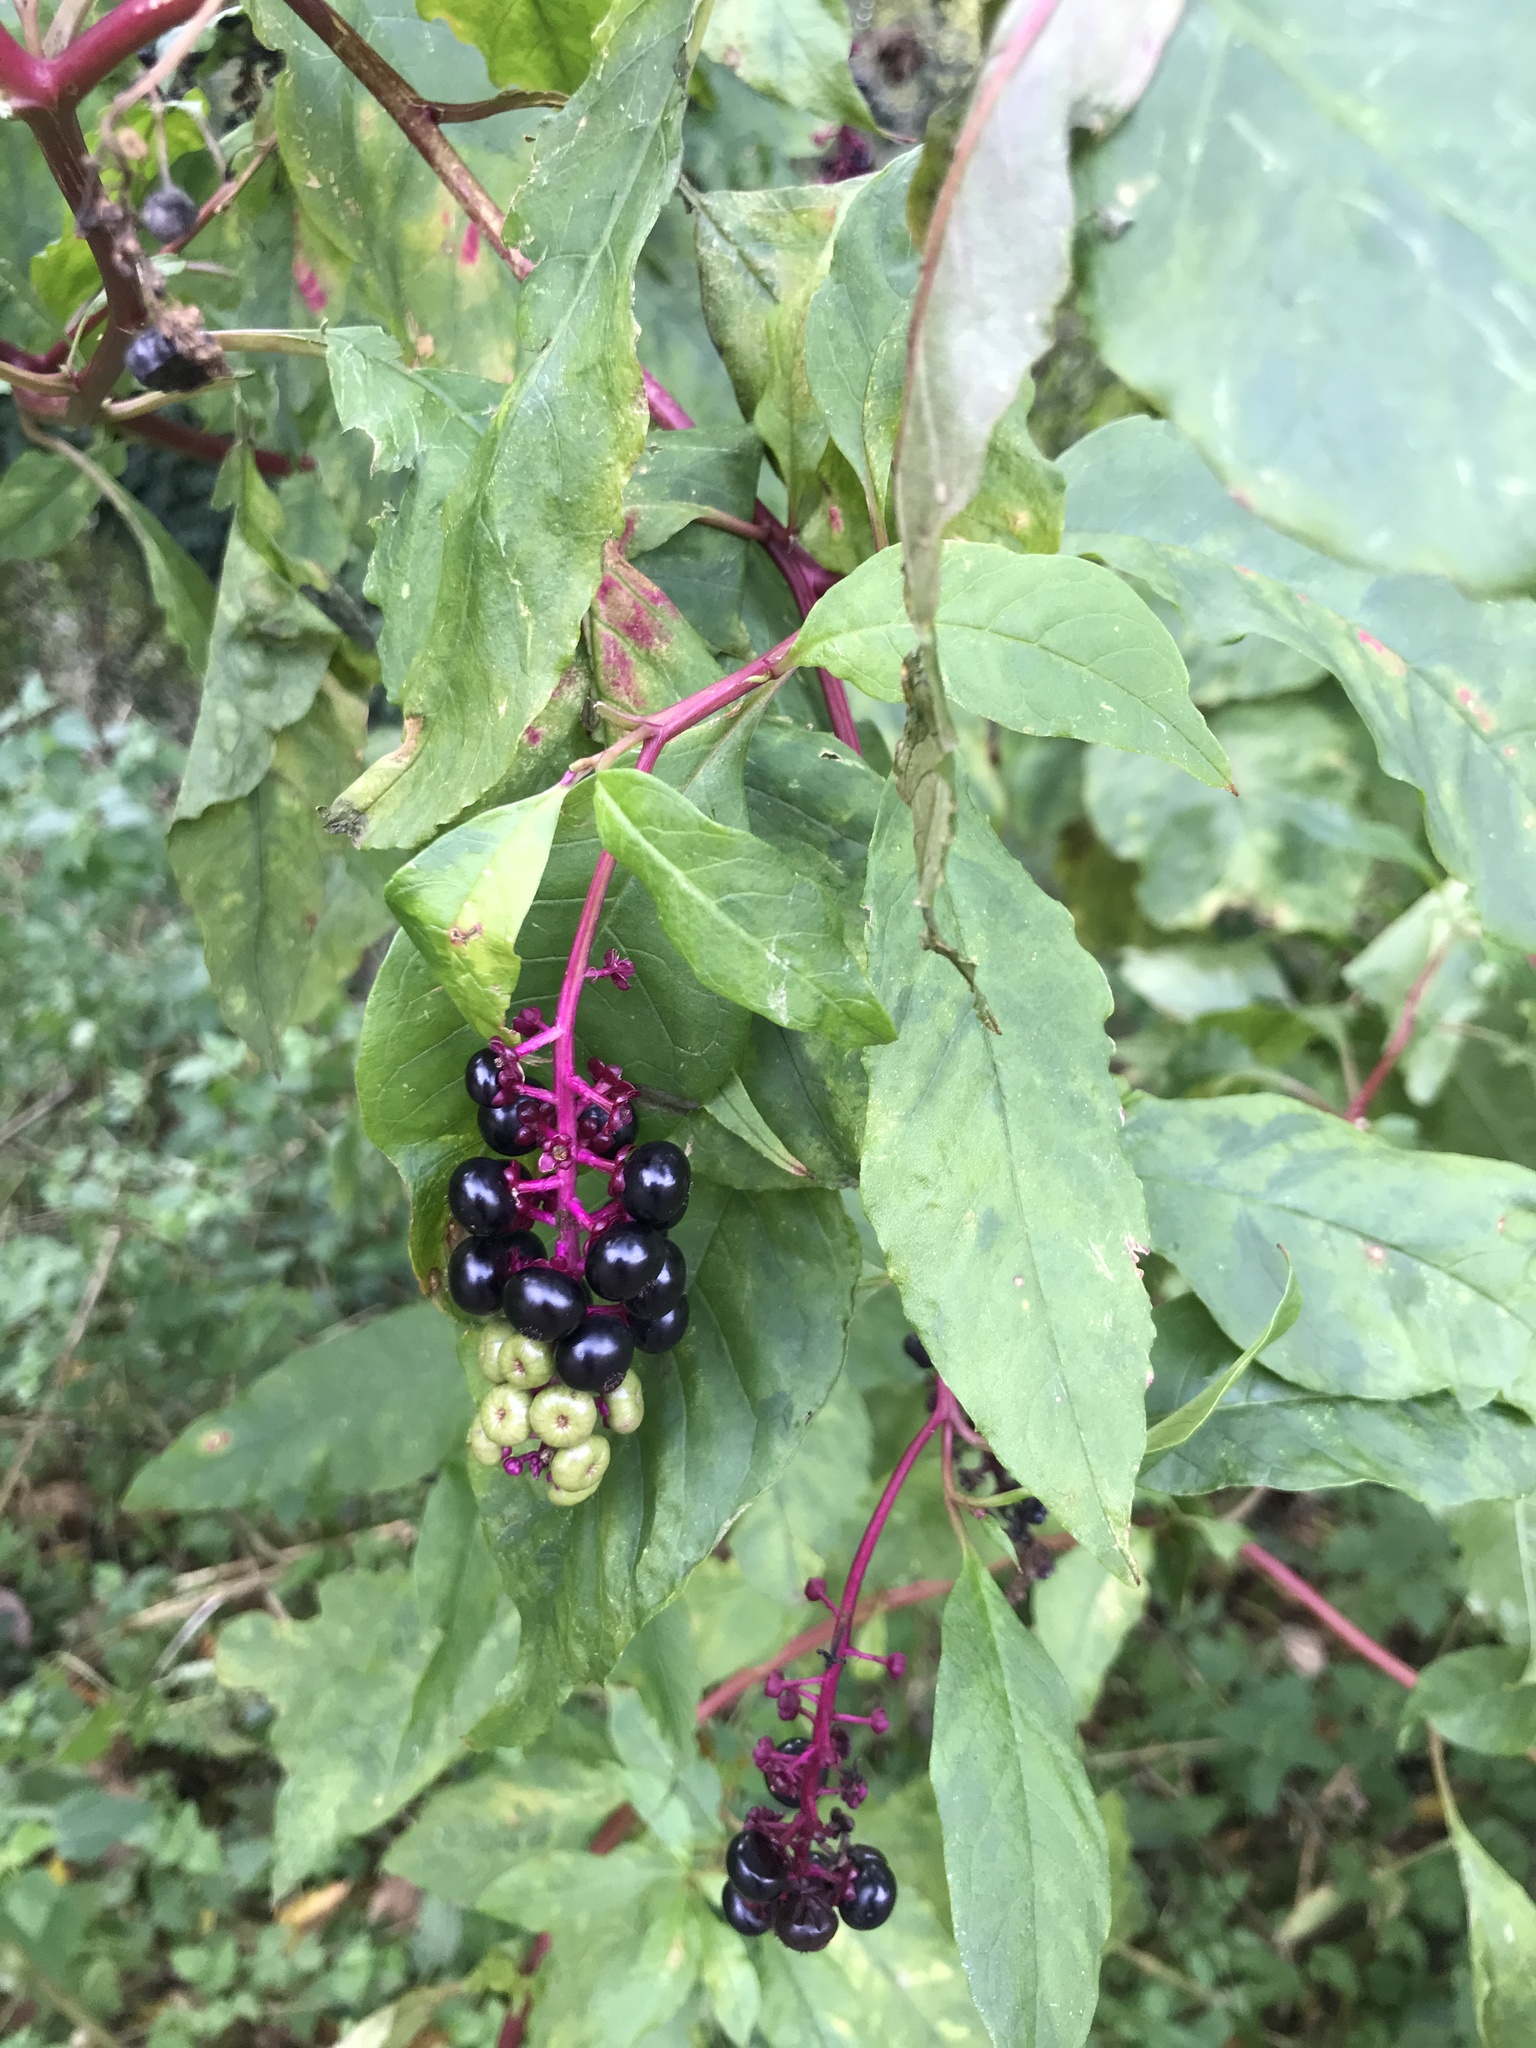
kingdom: Plantae
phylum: Tracheophyta
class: Magnoliopsida
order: Caryophyllales
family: Phytolaccaceae
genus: Phytolacca
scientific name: Phytolacca americana
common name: American pokeweed
